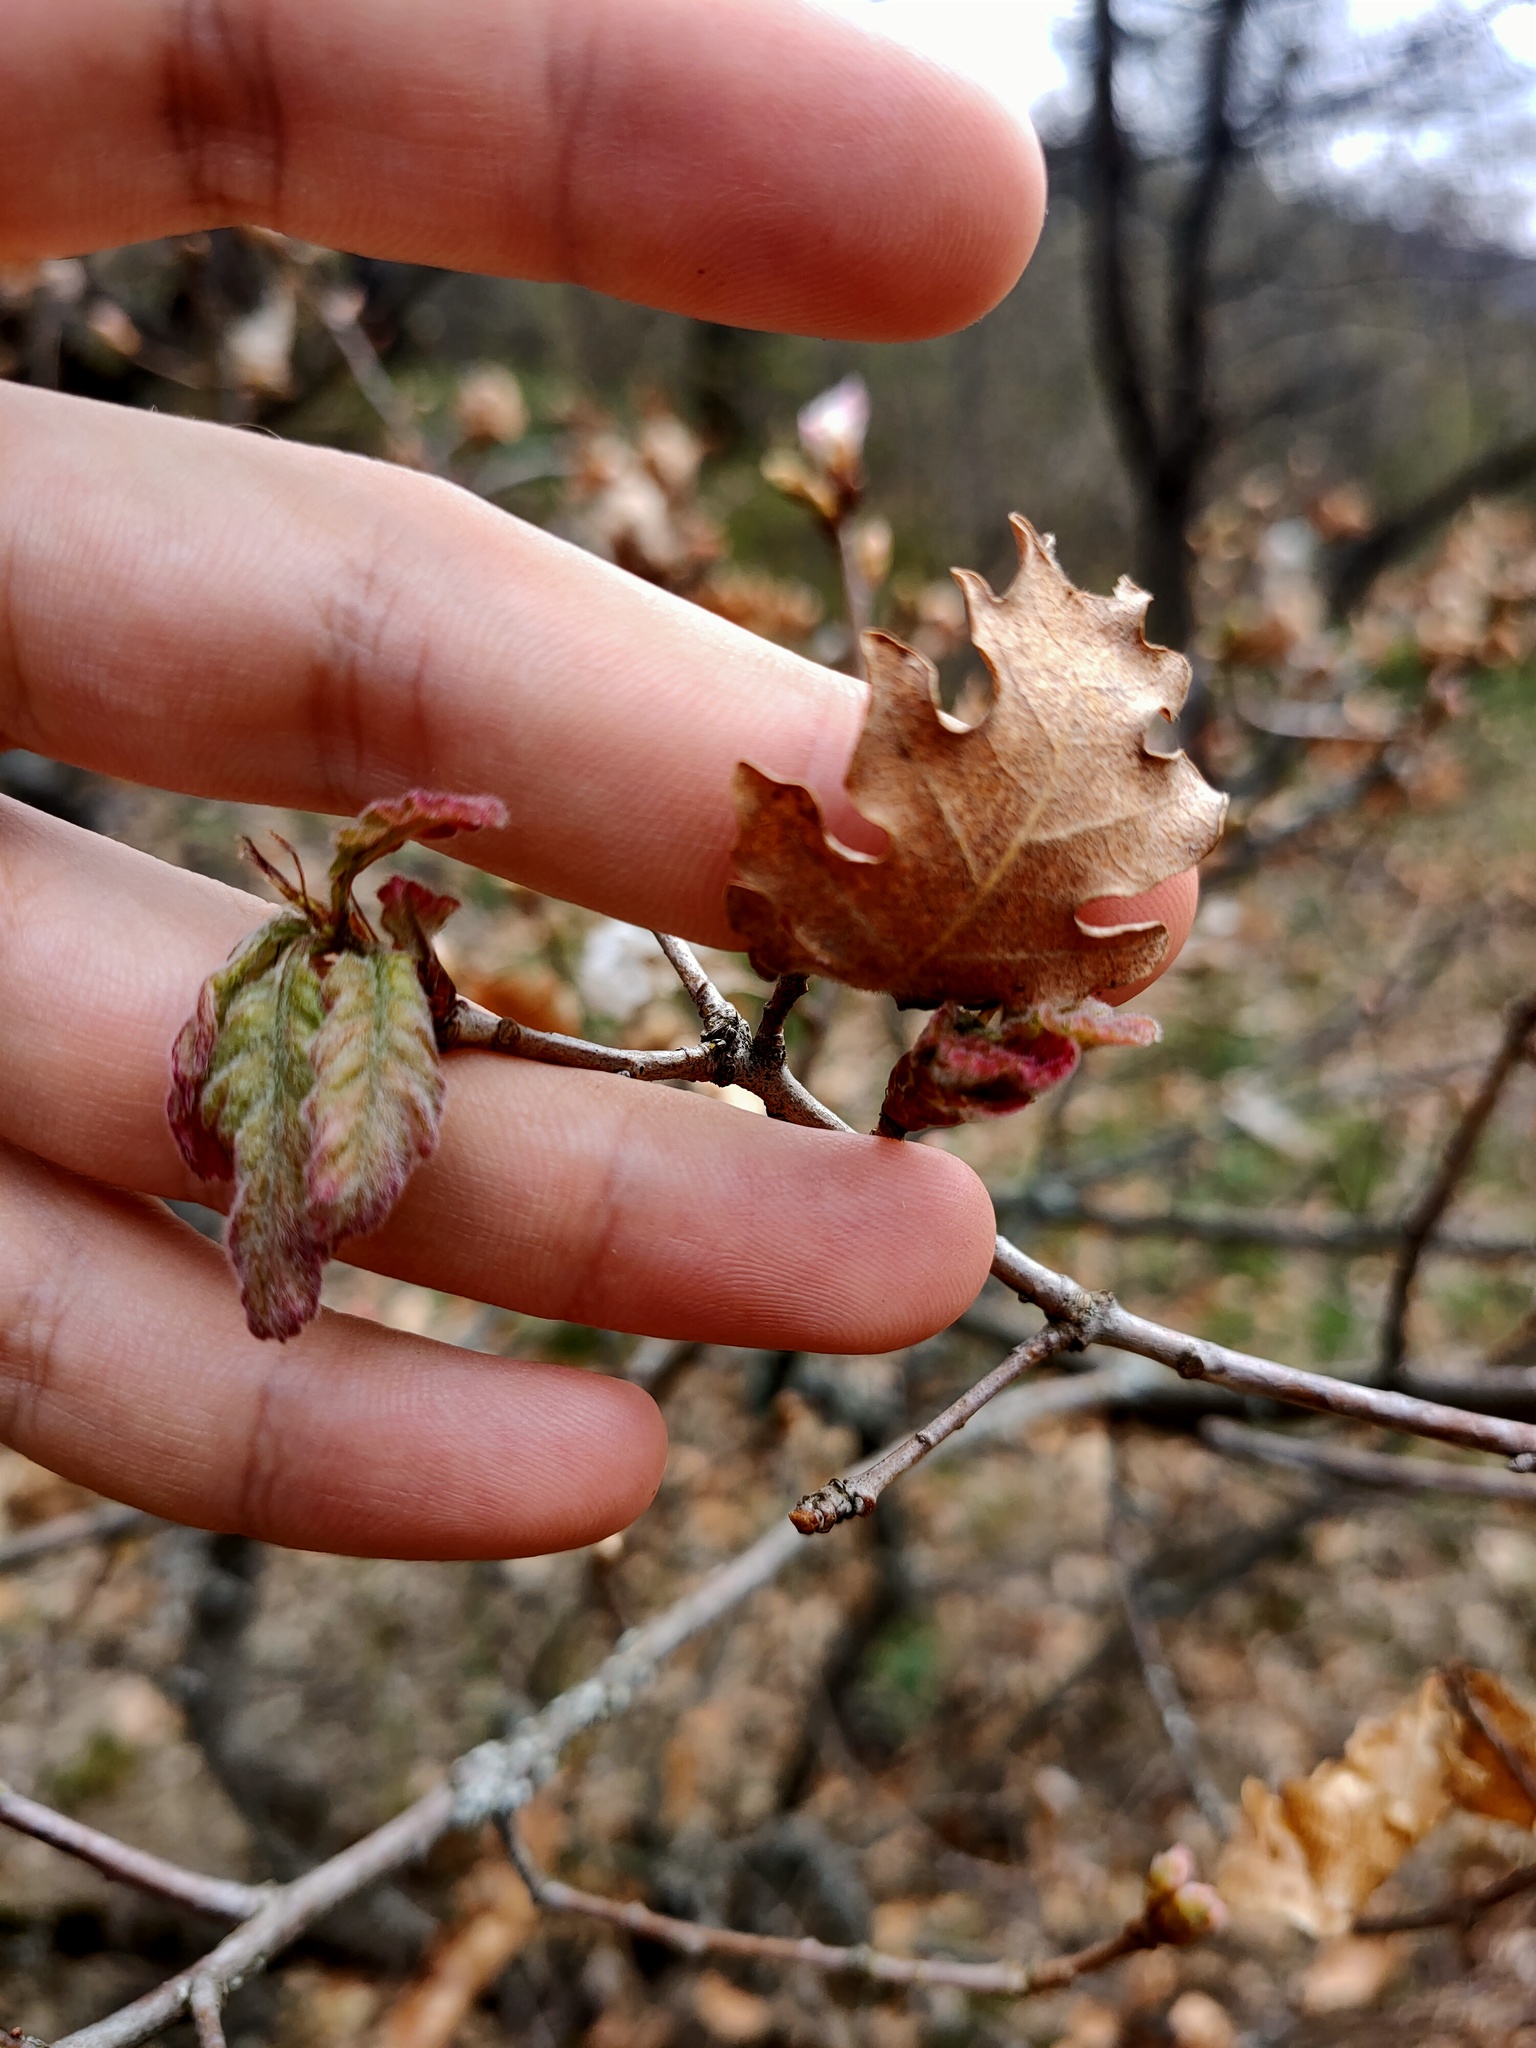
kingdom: Plantae
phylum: Tracheophyta
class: Magnoliopsida
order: Fagales
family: Fagaceae
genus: Quercus
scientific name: Quercus pubescens
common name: Downy oak
